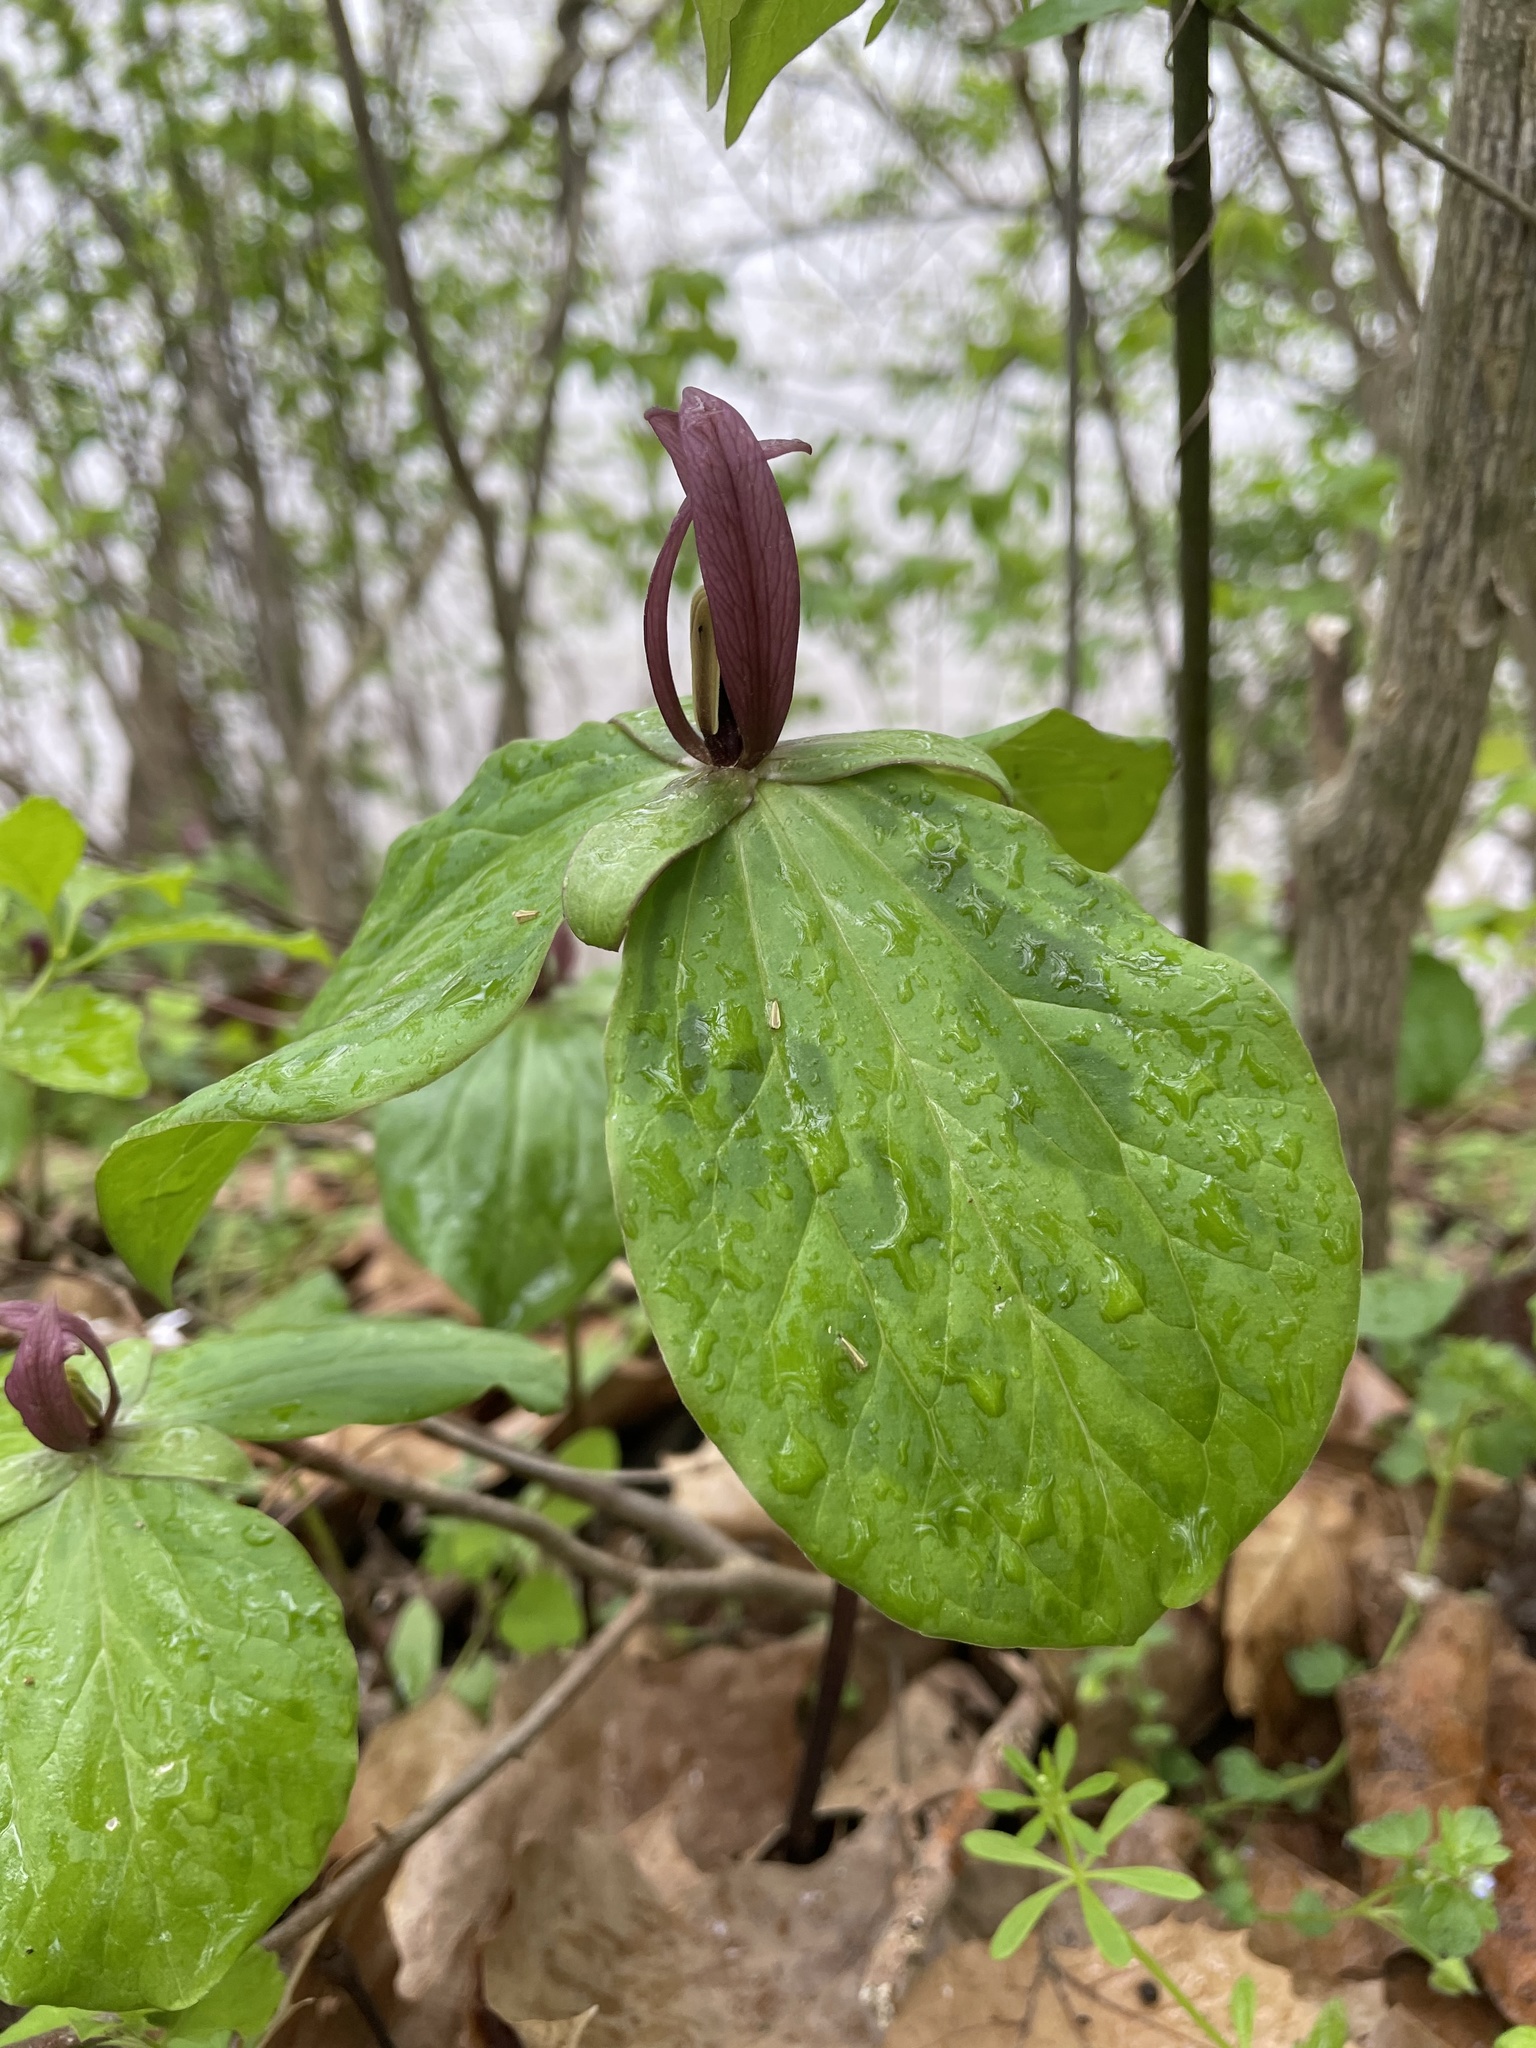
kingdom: Plantae
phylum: Tracheophyta
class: Liliopsida
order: Liliales
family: Melanthiaceae
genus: Trillium
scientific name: Trillium sessile
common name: Sessile trillium
